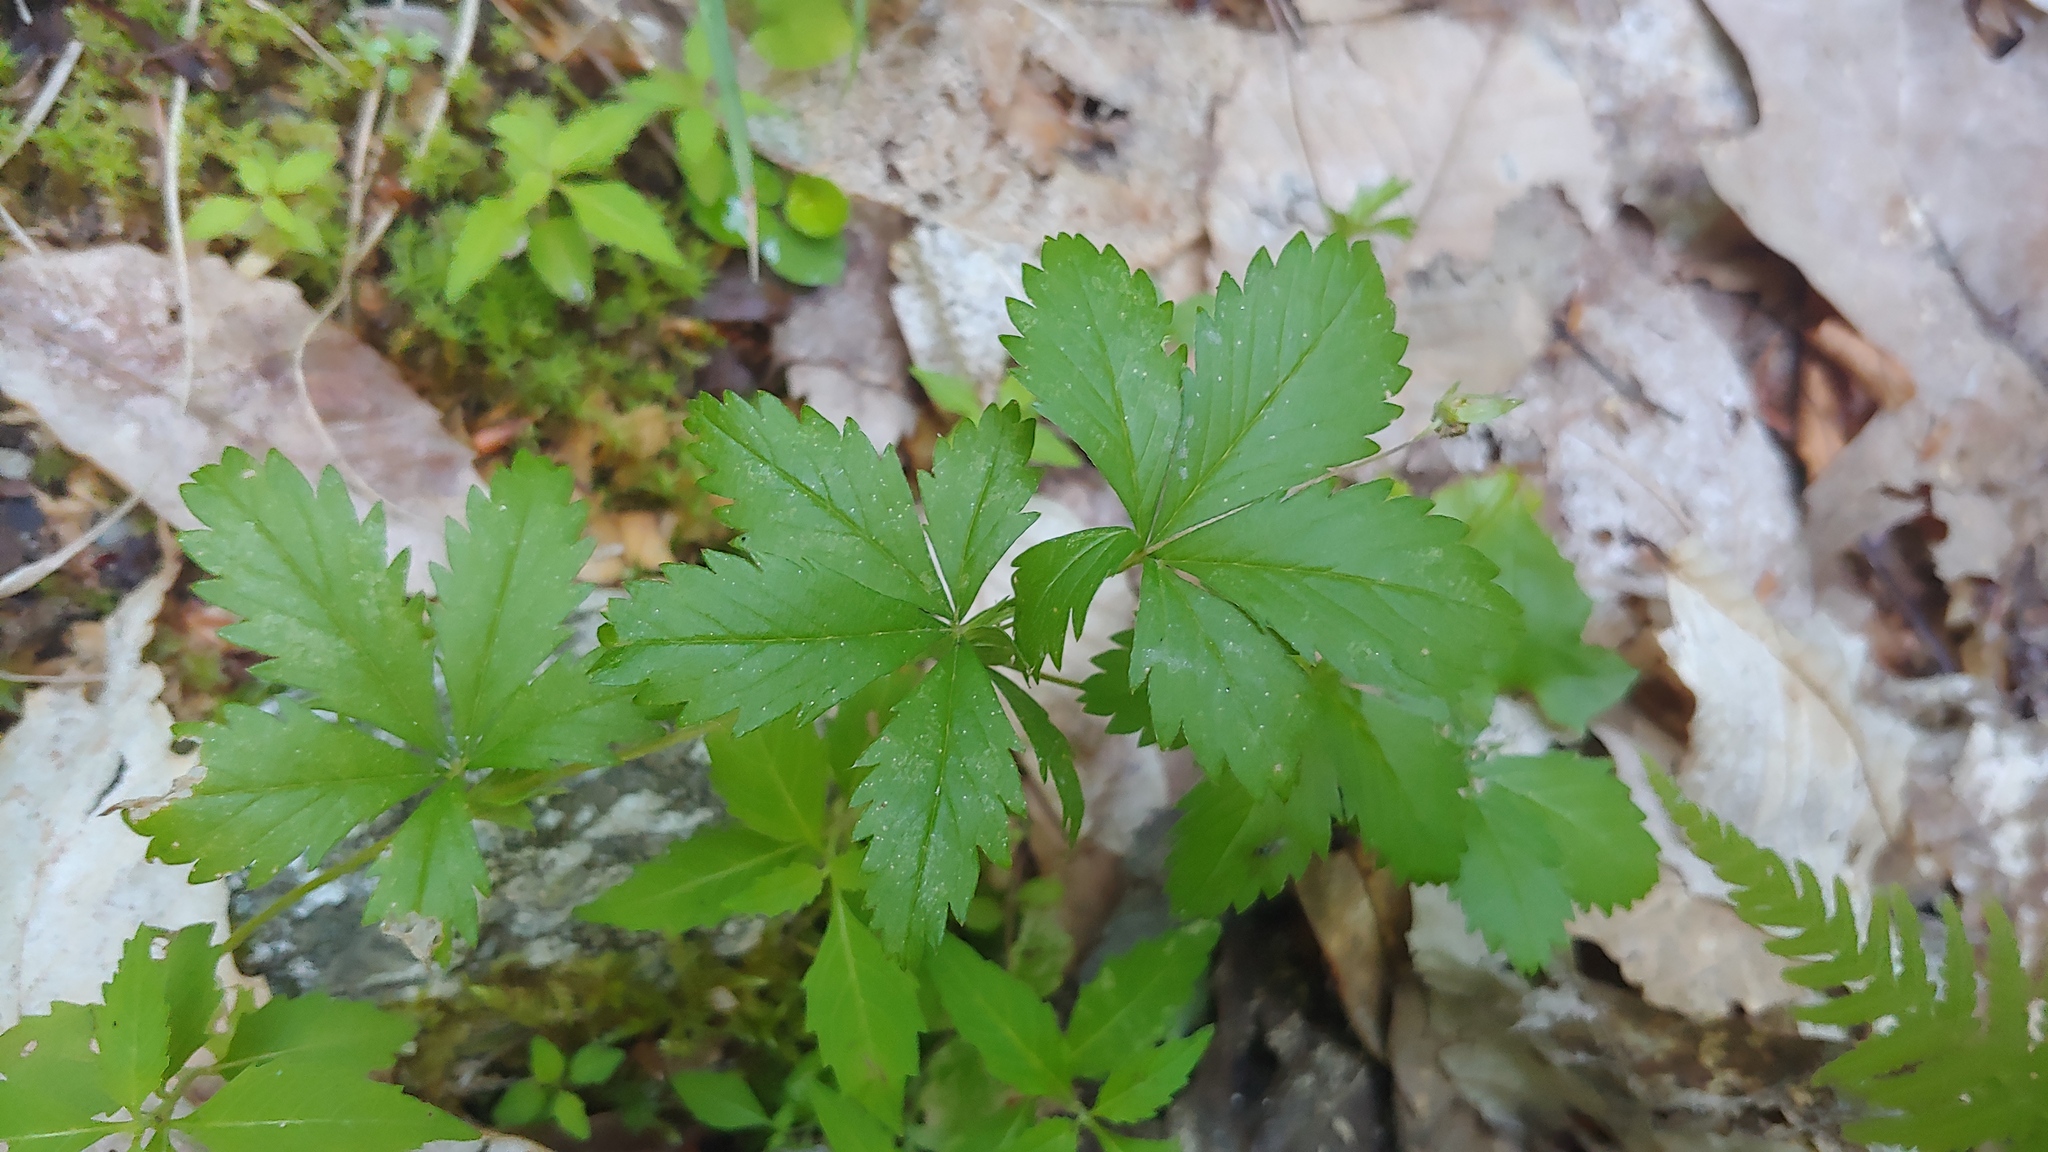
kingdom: Plantae
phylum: Tracheophyta
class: Magnoliopsida
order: Rosales
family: Rosaceae
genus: Potentilla
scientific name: Potentilla simplex
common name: Old field cinquefoil
